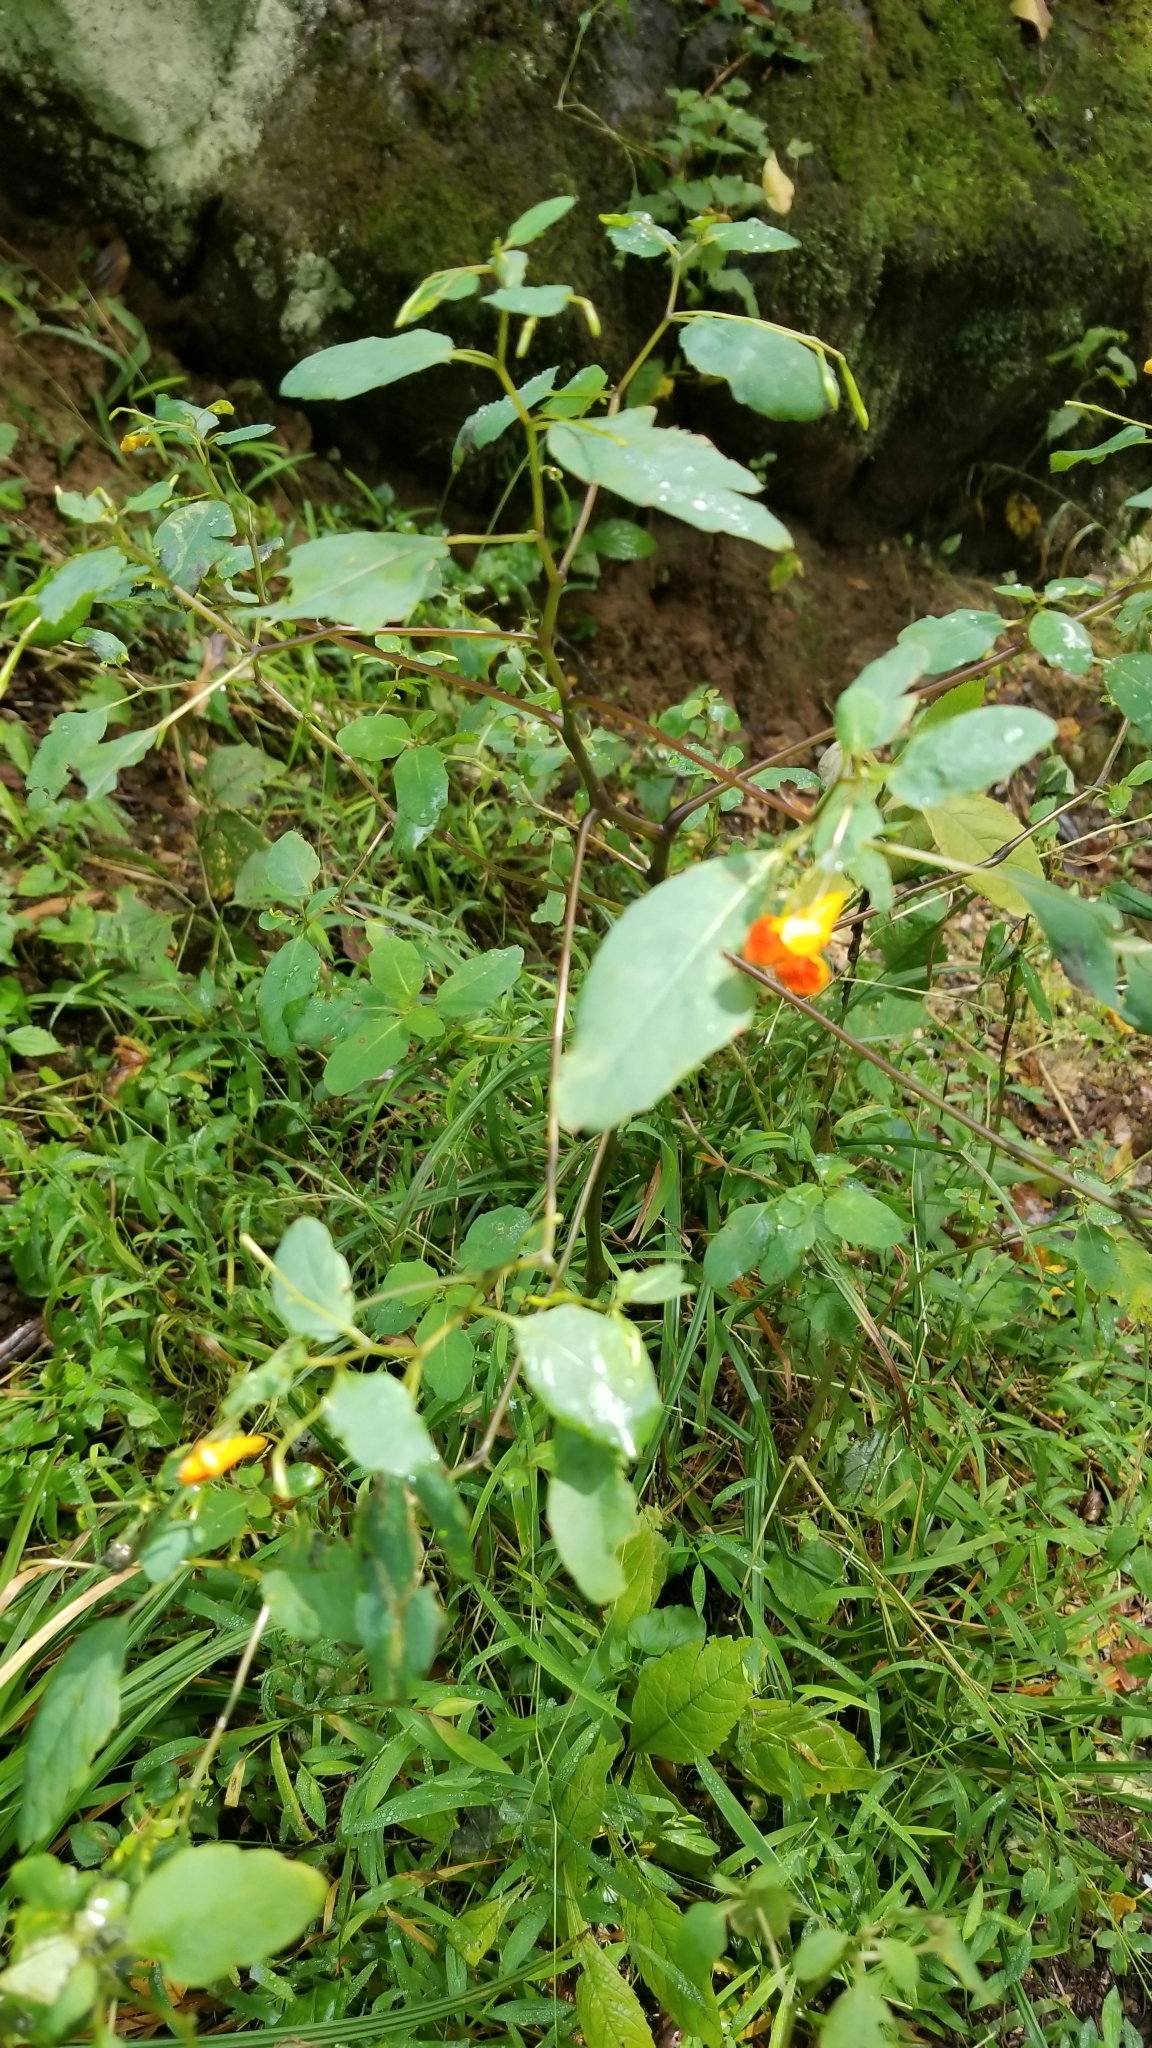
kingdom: Plantae
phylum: Tracheophyta
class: Magnoliopsida
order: Ericales
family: Balsaminaceae
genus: Impatiens
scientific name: Impatiens capensis
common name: Orange balsam
